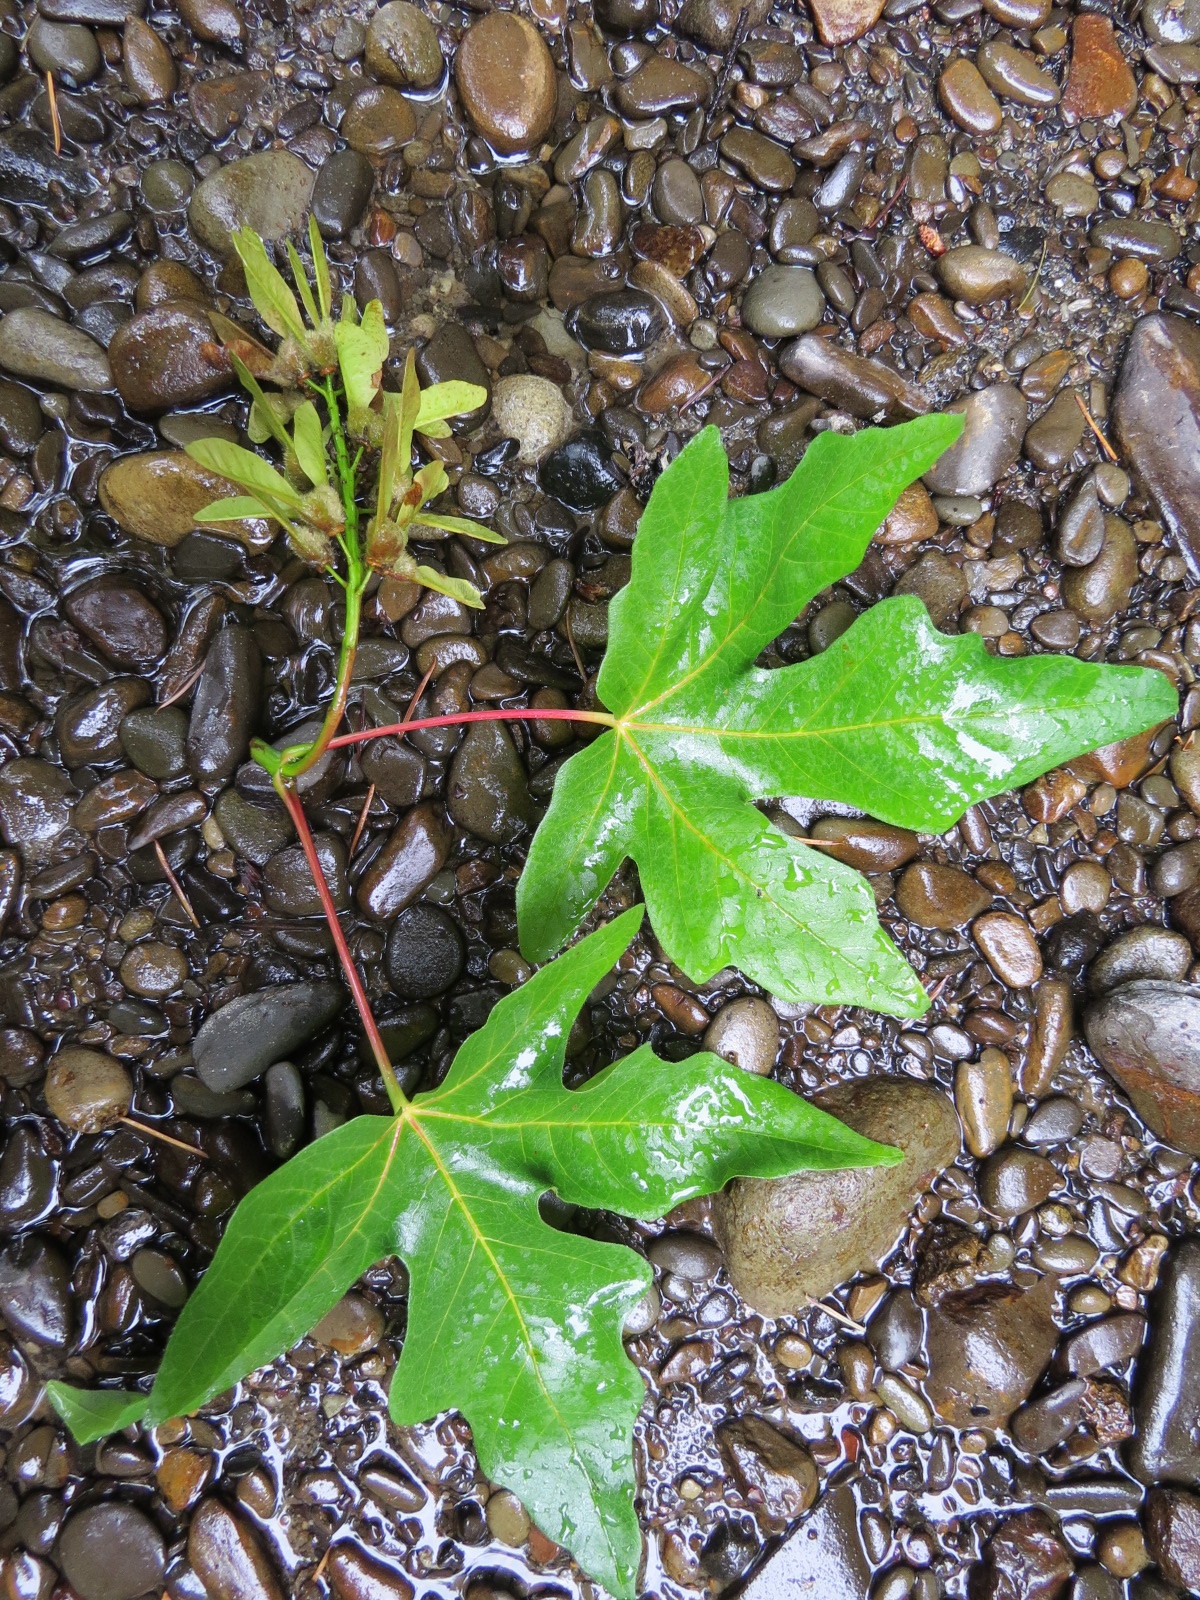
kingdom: Plantae
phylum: Tracheophyta
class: Magnoliopsida
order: Sapindales
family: Sapindaceae
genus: Acer
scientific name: Acer macrophyllum
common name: Oregon maple
